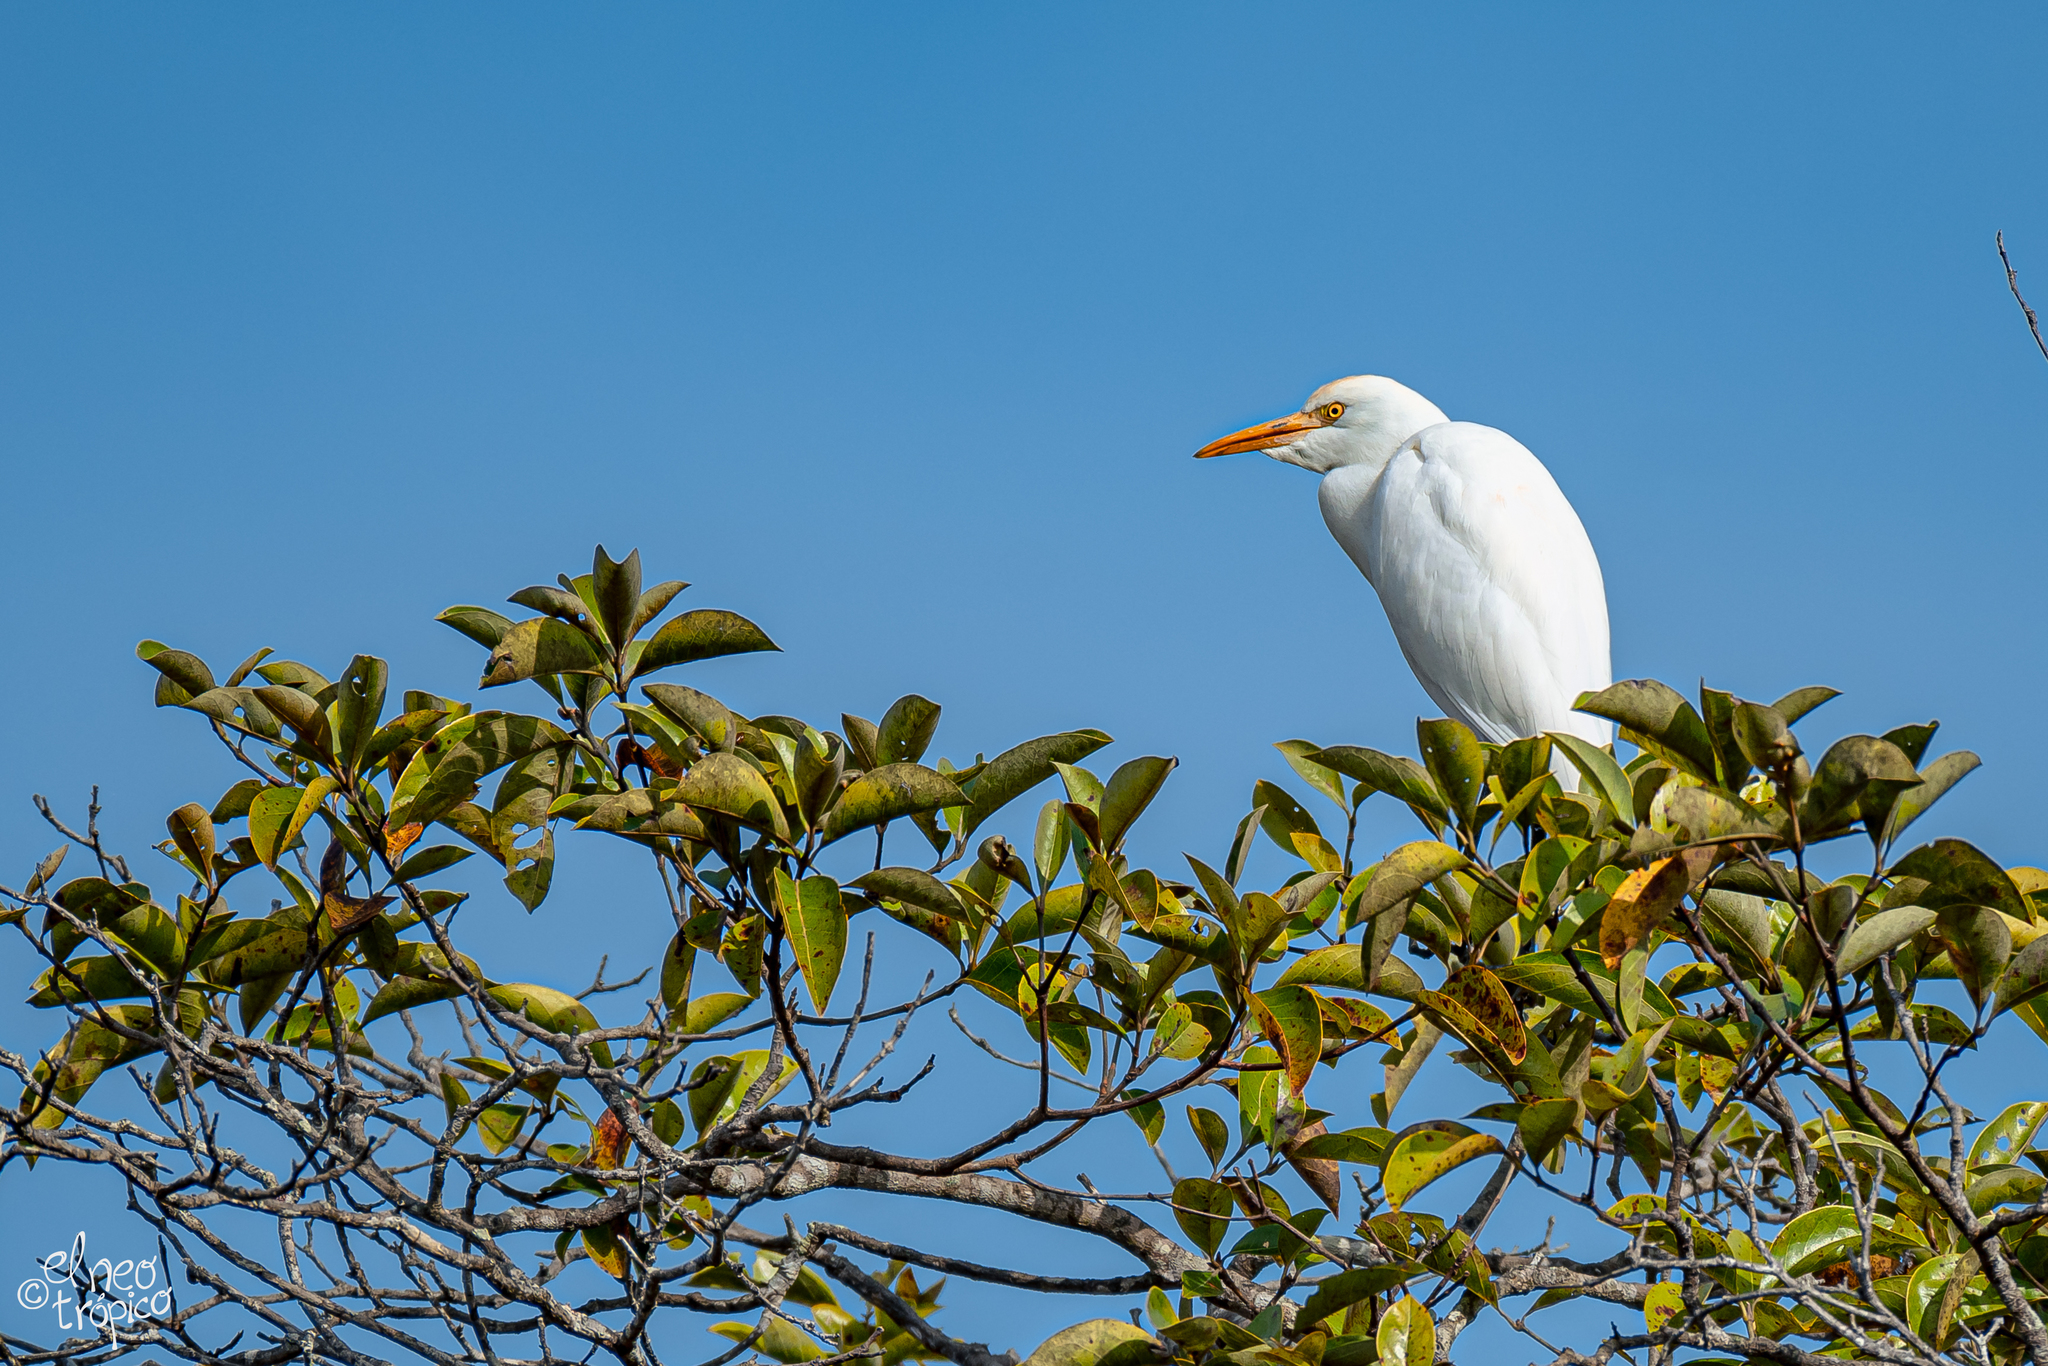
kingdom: Animalia
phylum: Chordata
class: Aves
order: Pelecaniformes
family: Ardeidae
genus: Bubulcus
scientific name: Bubulcus ibis
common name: Cattle egret
